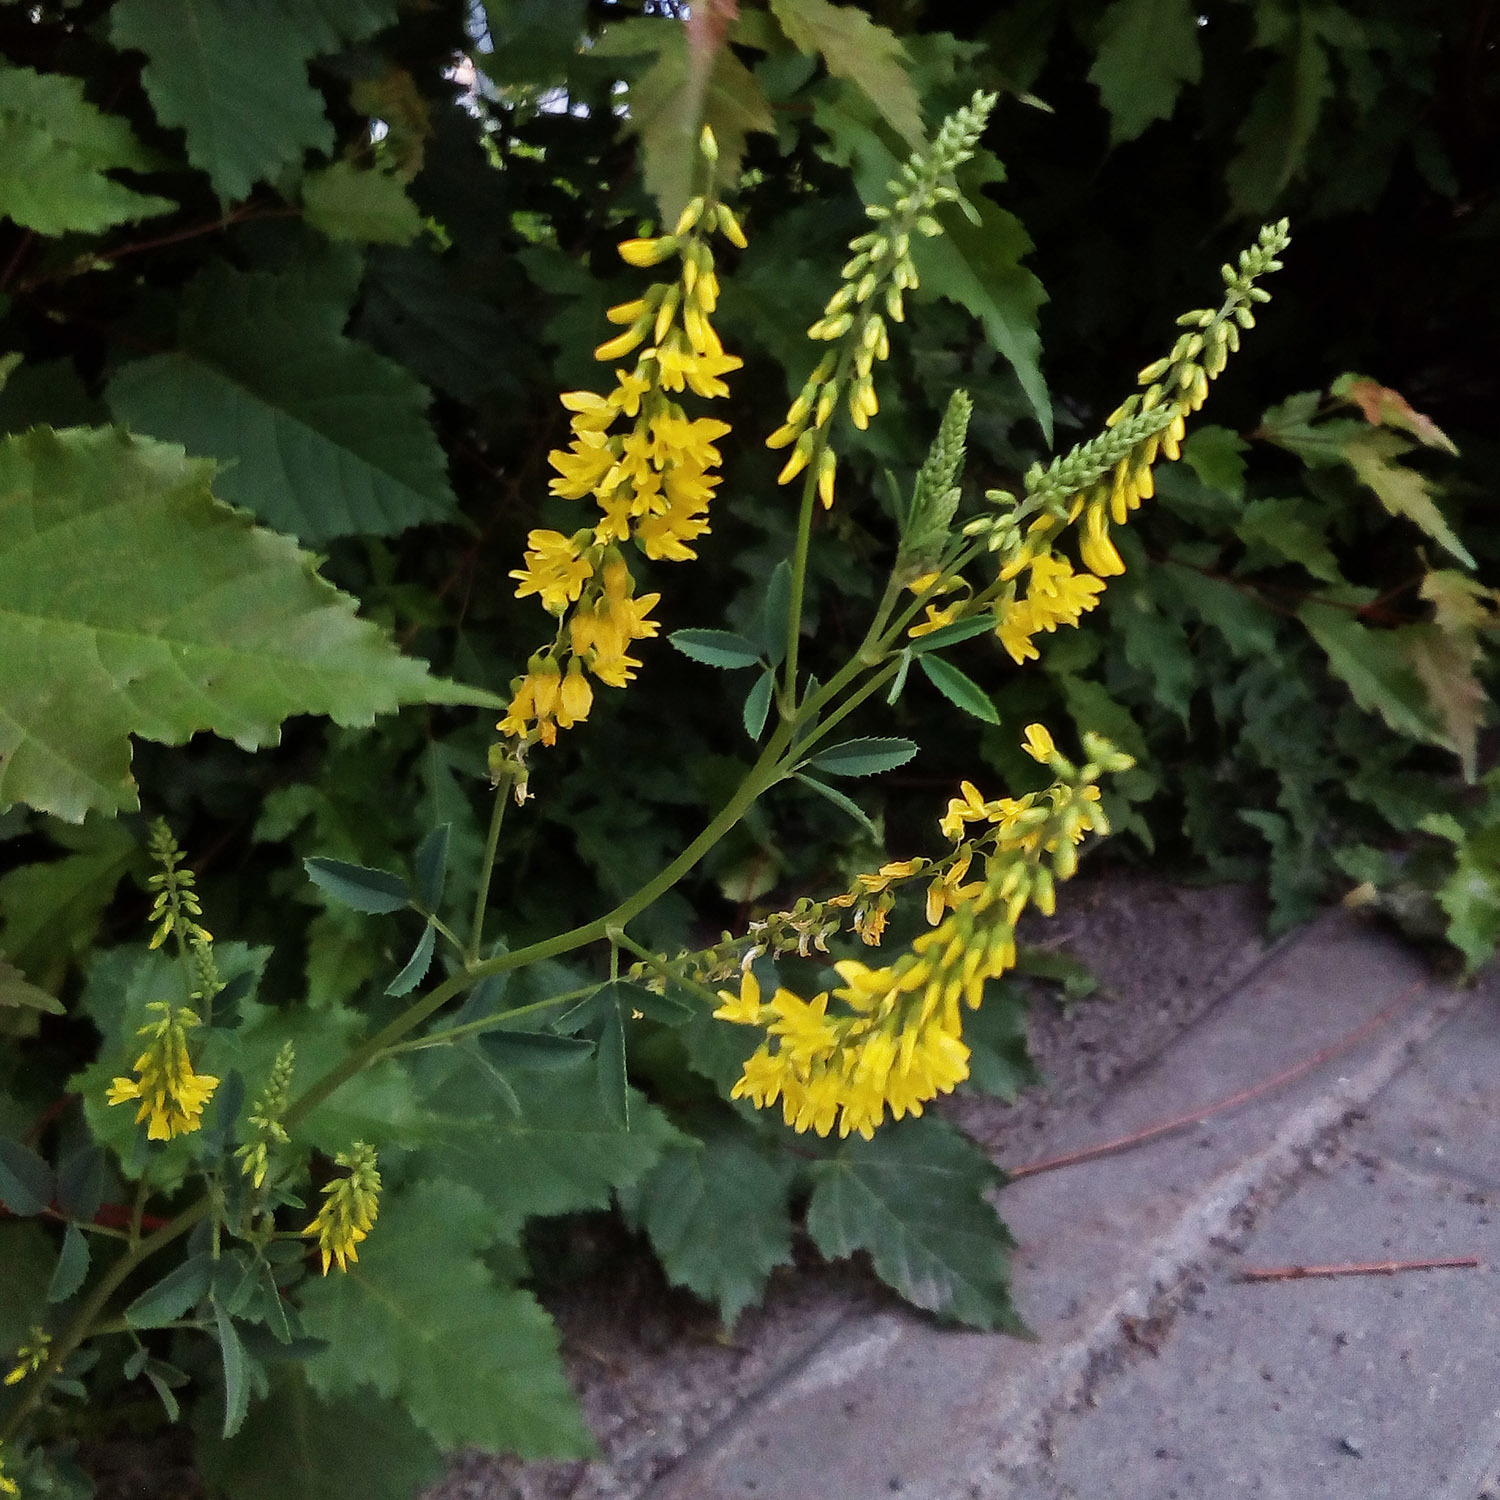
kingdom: Plantae
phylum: Tracheophyta
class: Magnoliopsida
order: Fabales
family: Fabaceae
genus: Melilotus
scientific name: Melilotus officinalis
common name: Sweetclover
